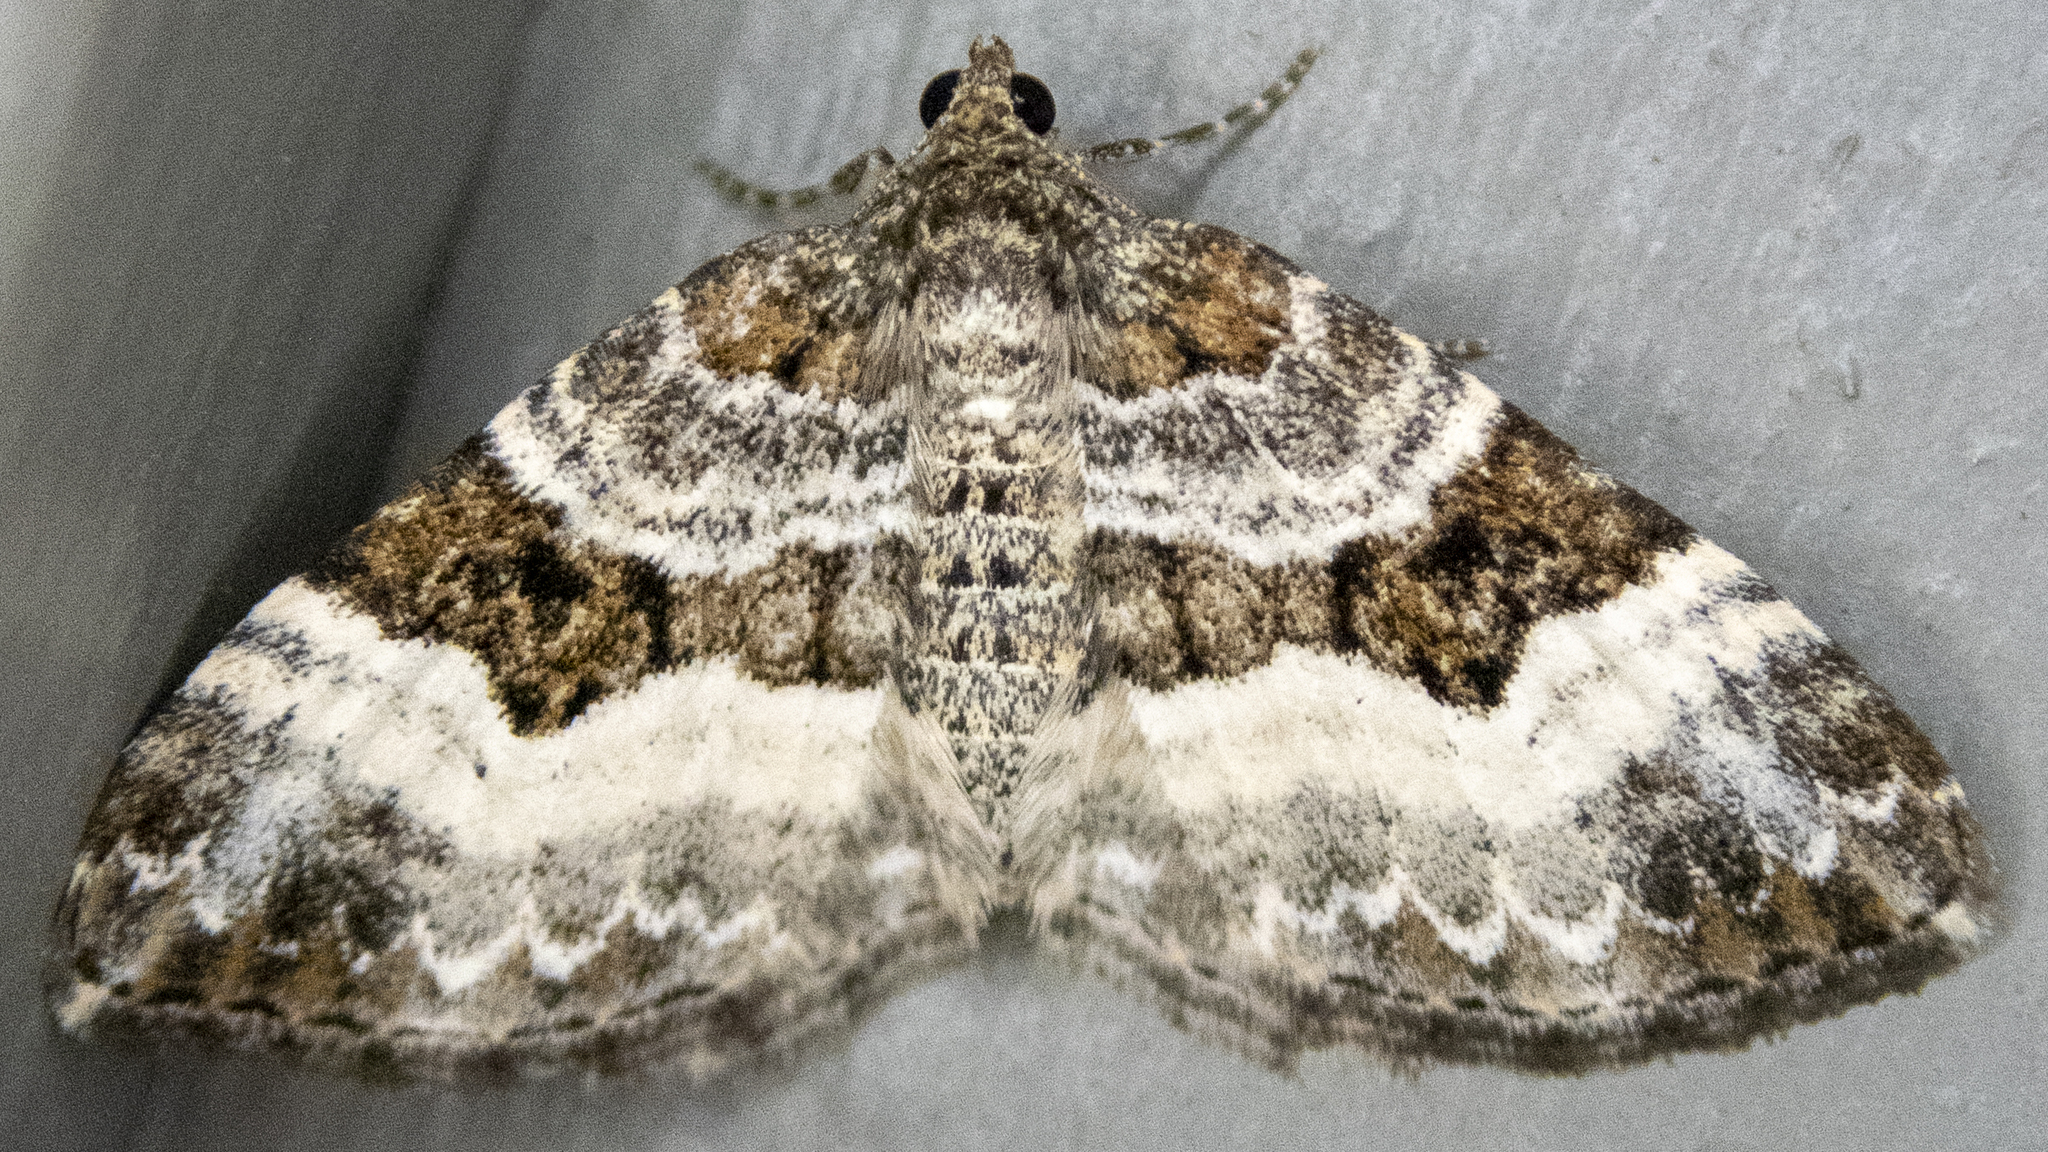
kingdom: Animalia
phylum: Arthropoda
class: Insecta
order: Lepidoptera
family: Geometridae
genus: Euphyia
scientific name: Euphyia intermediata
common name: Sharp-angled carpet
